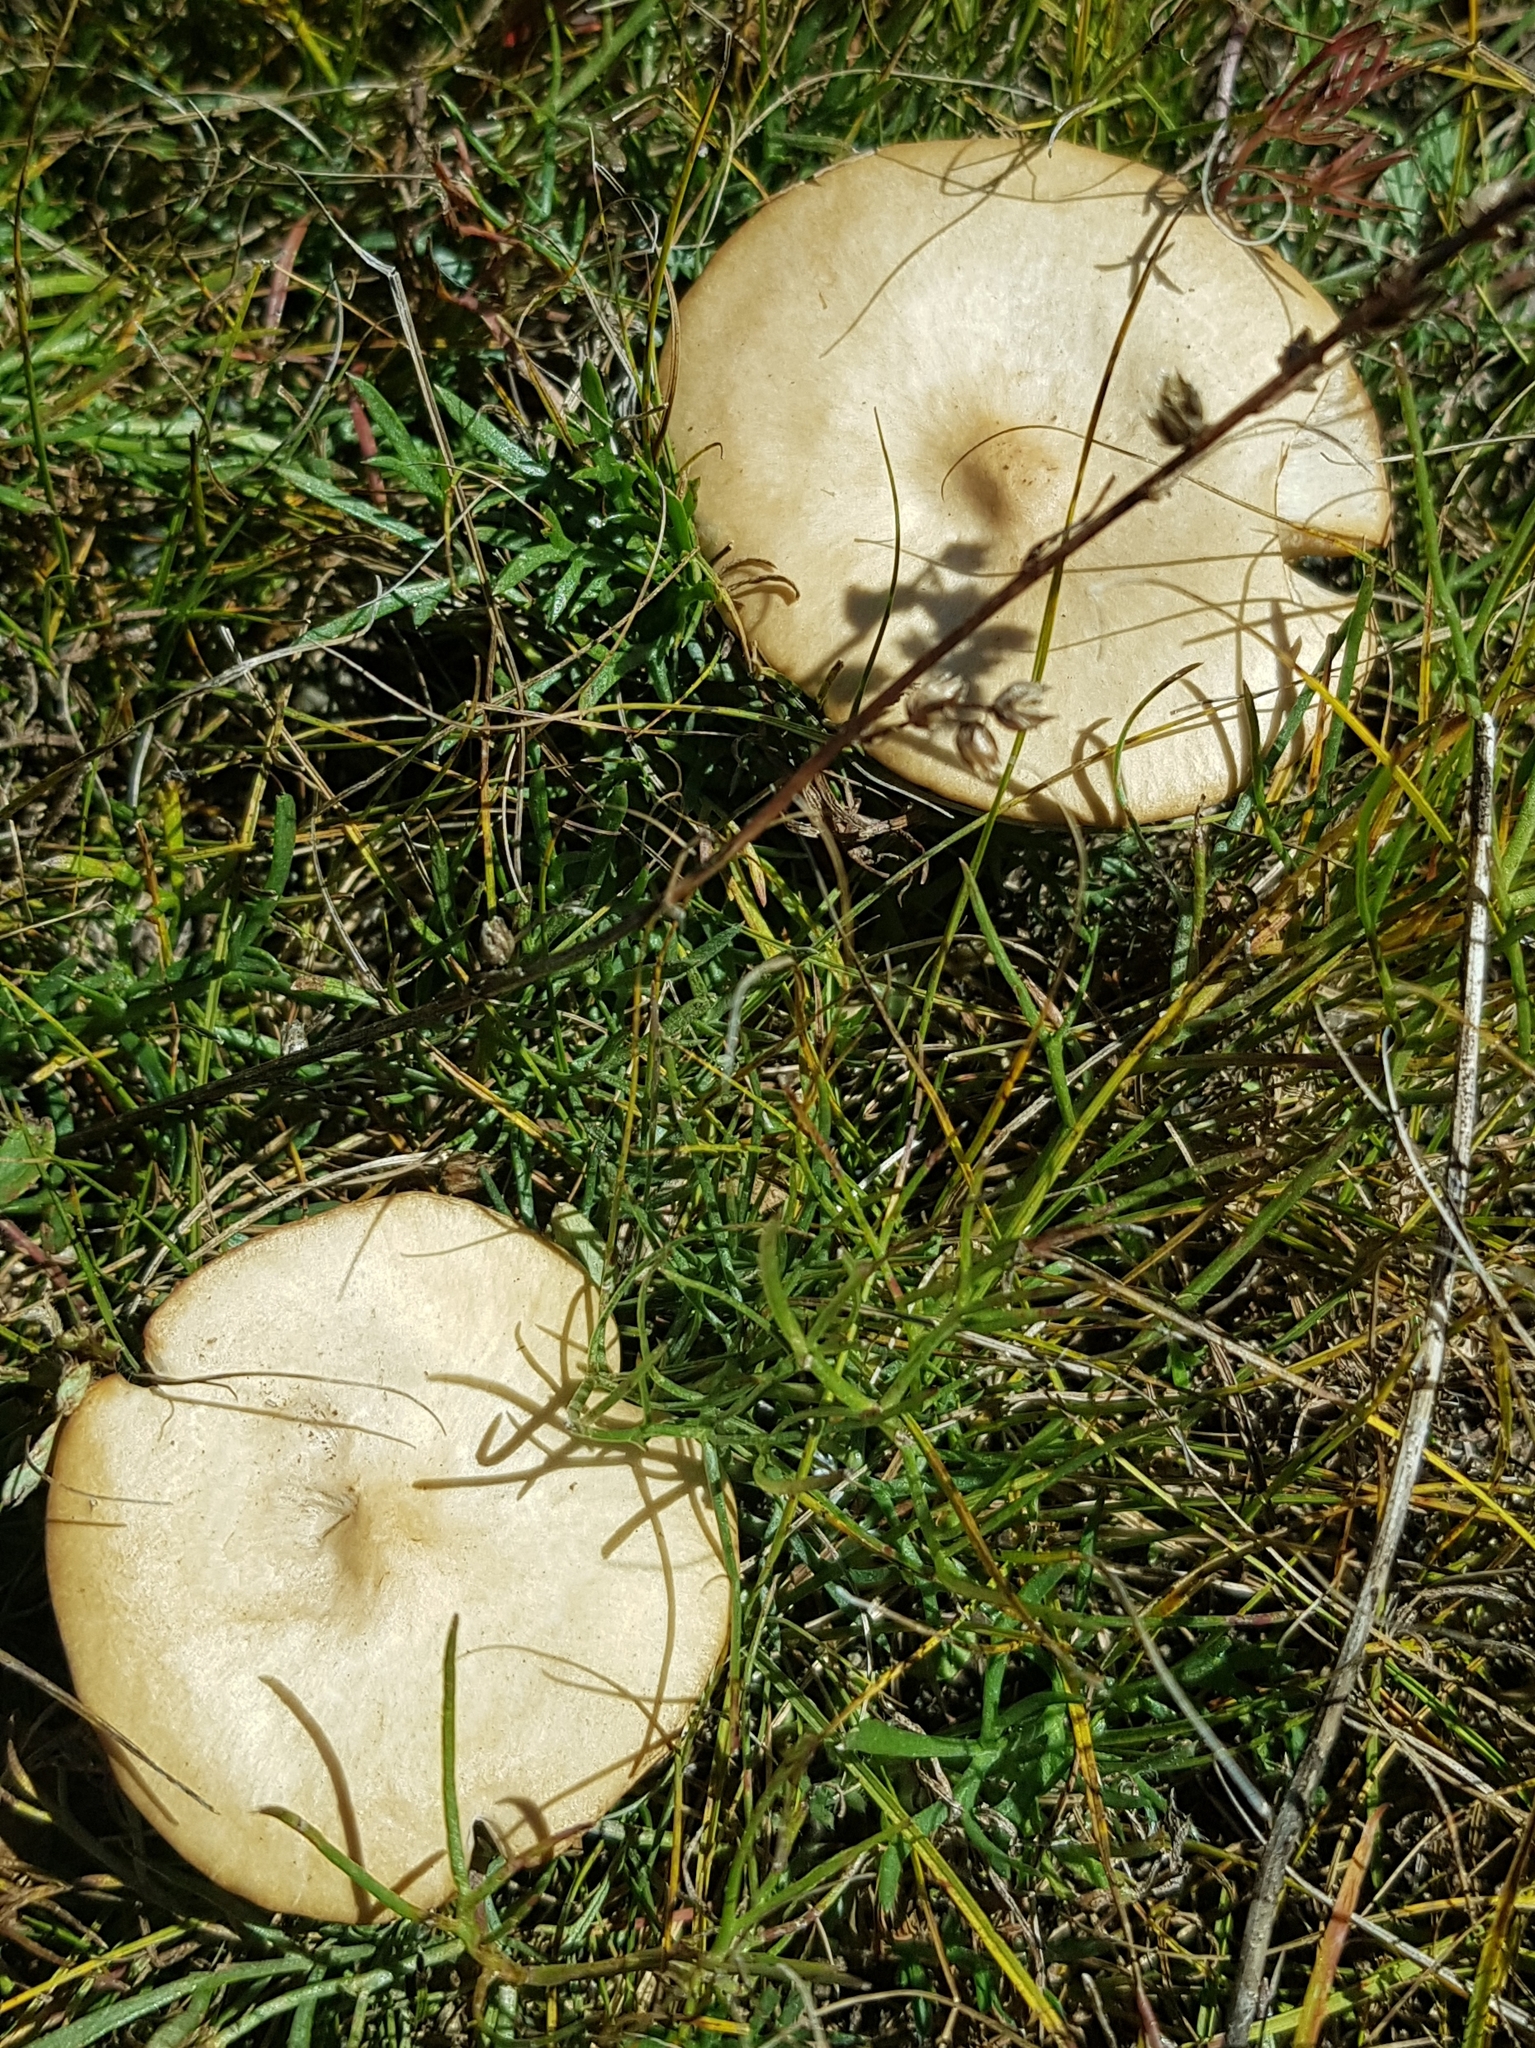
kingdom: Fungi
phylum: Basidiomycota
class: Agaricomycetes
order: Agaricales
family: Pluteaceae
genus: Volvopluteus
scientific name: Volvopluteus gloiocephalus
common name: Stubble rosegill
